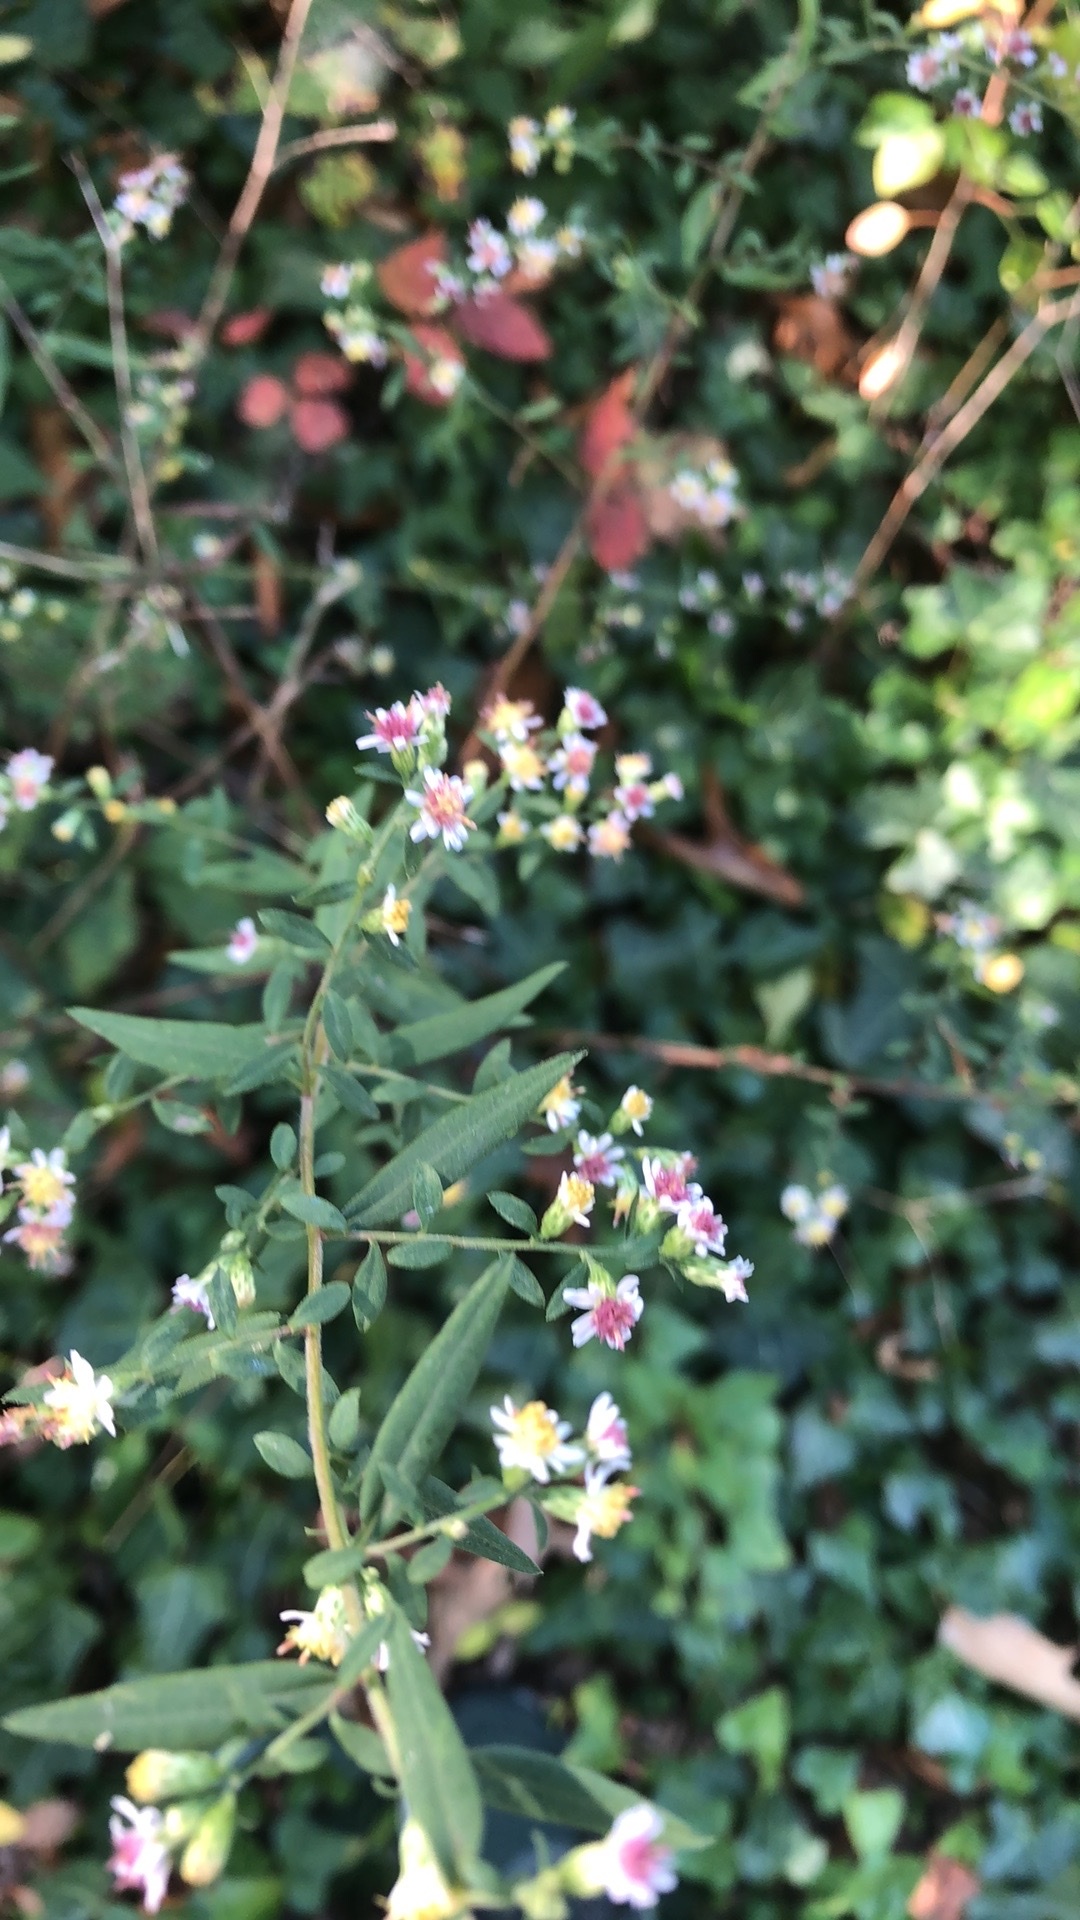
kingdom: Plantae
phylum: Tracheophyta
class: Magnoliopsida
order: Asterales
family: Asteraceae
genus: Symphyotrichum
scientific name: Symphyotrichum lateriflorum
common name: Calico aster
